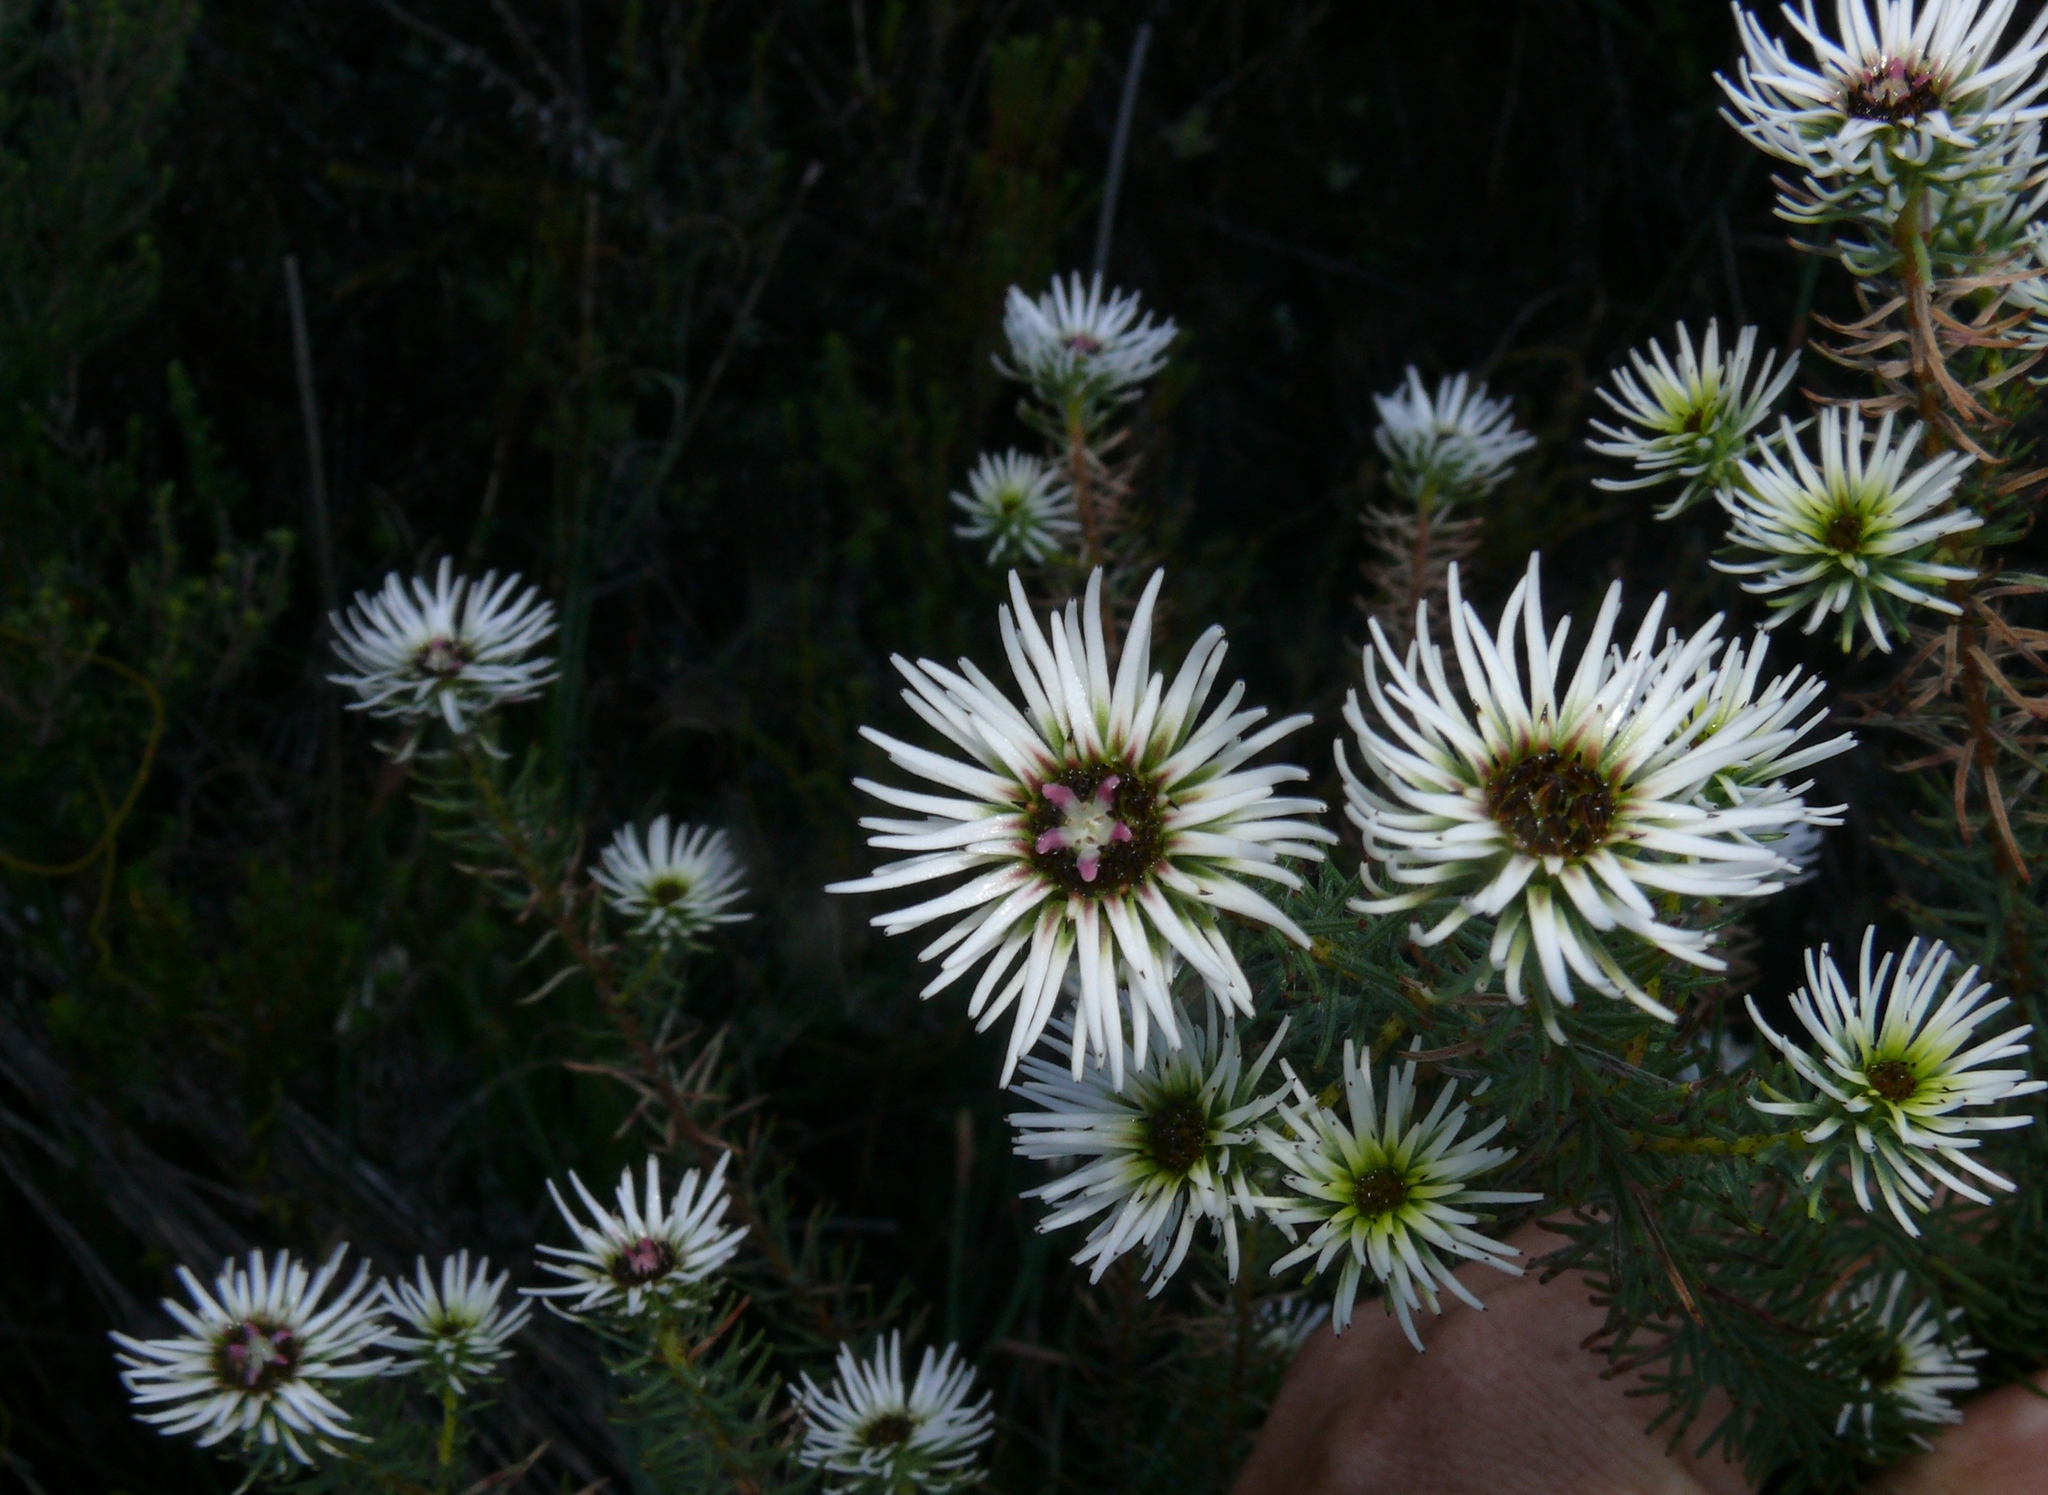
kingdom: Plantae
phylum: Tracheophyta
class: Magnoliopsida
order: Bruniales
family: Bruniaceae
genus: Staavia
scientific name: Staavia glutinosa
